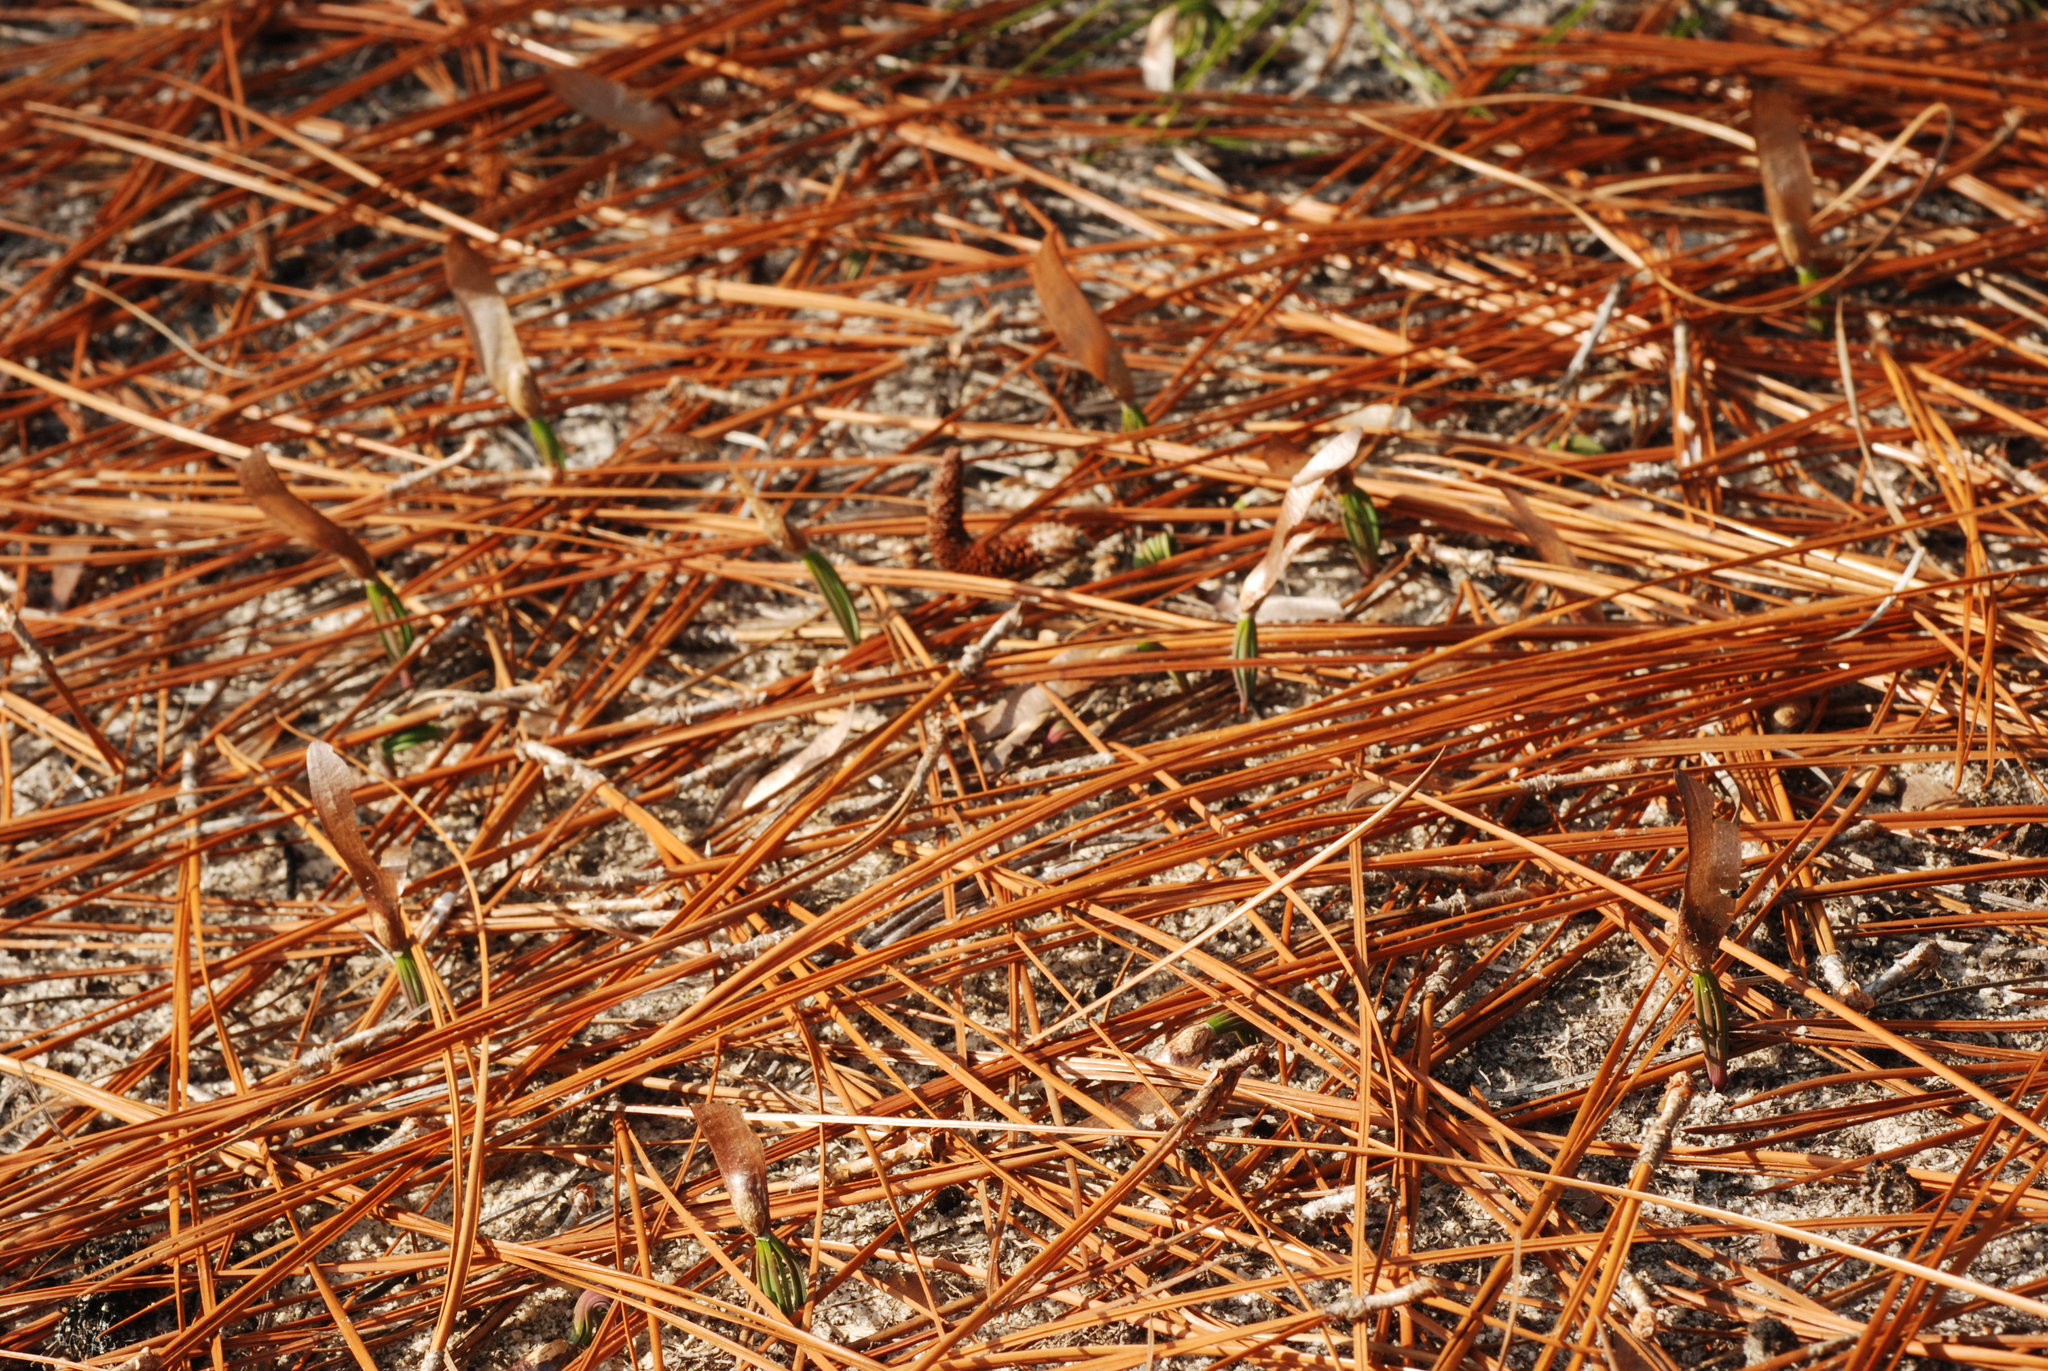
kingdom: Plantae
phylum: Tracheophyta
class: Pinopsida
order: Pinales
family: Pinaceae
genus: Pinus
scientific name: Pinus palustris
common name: Longleaf pine
